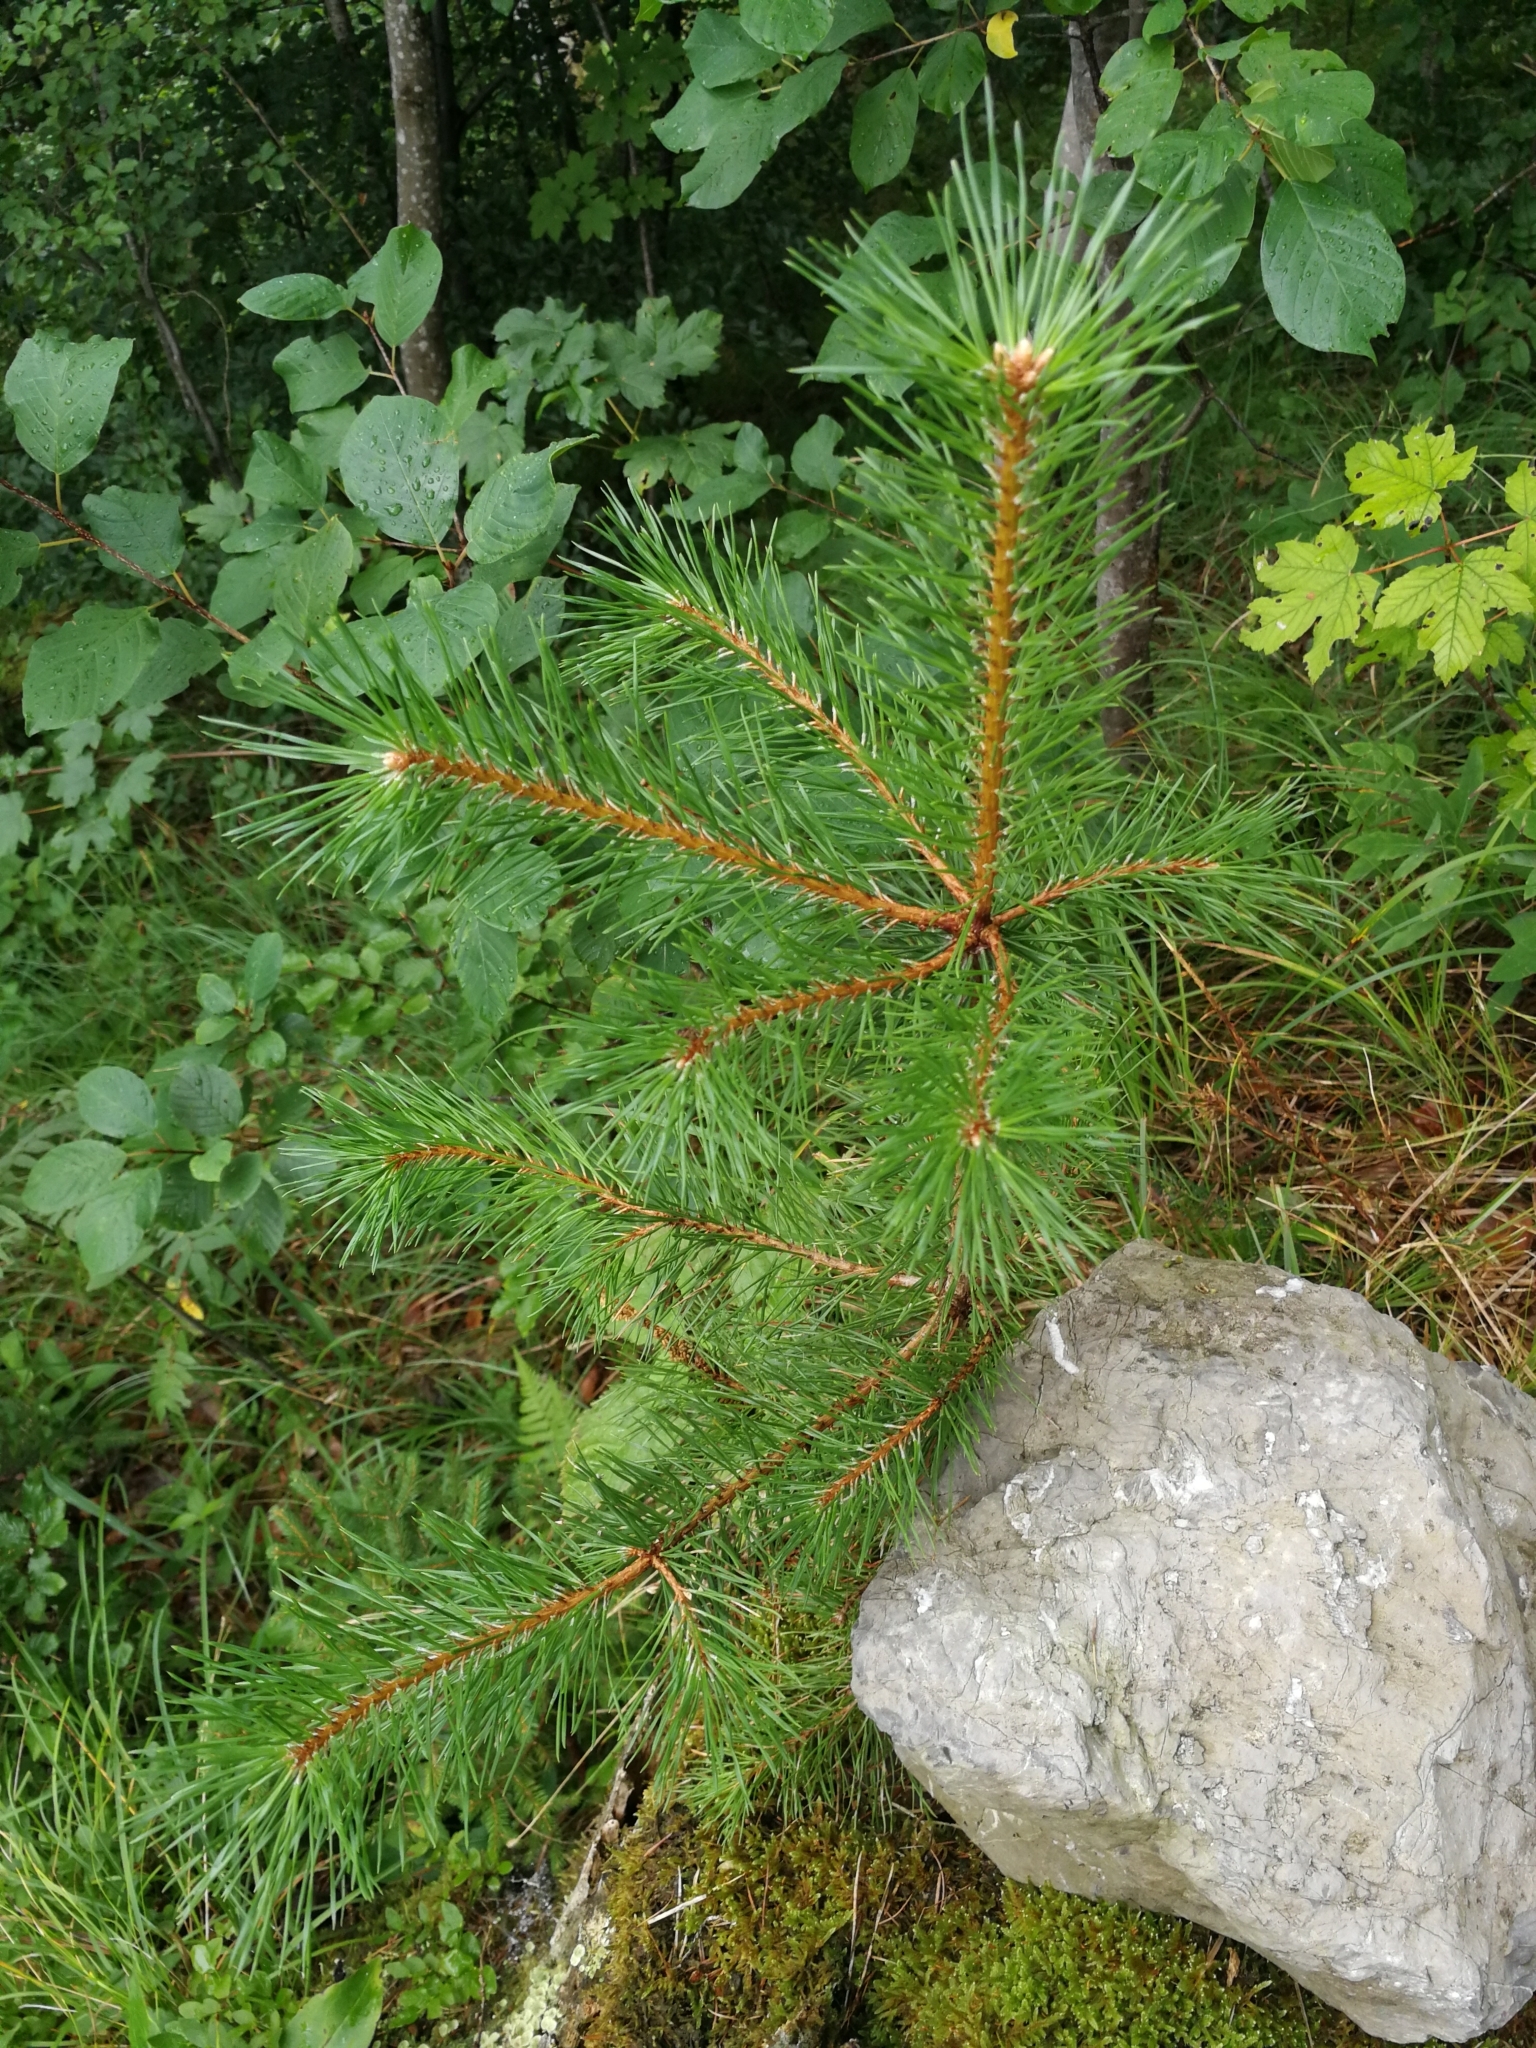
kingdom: Plantae
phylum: Tracheophyta
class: Pinopsida
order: Pinales
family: Pinaceae
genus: Pinus
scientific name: Pinus sylvestris
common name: Scots pine
